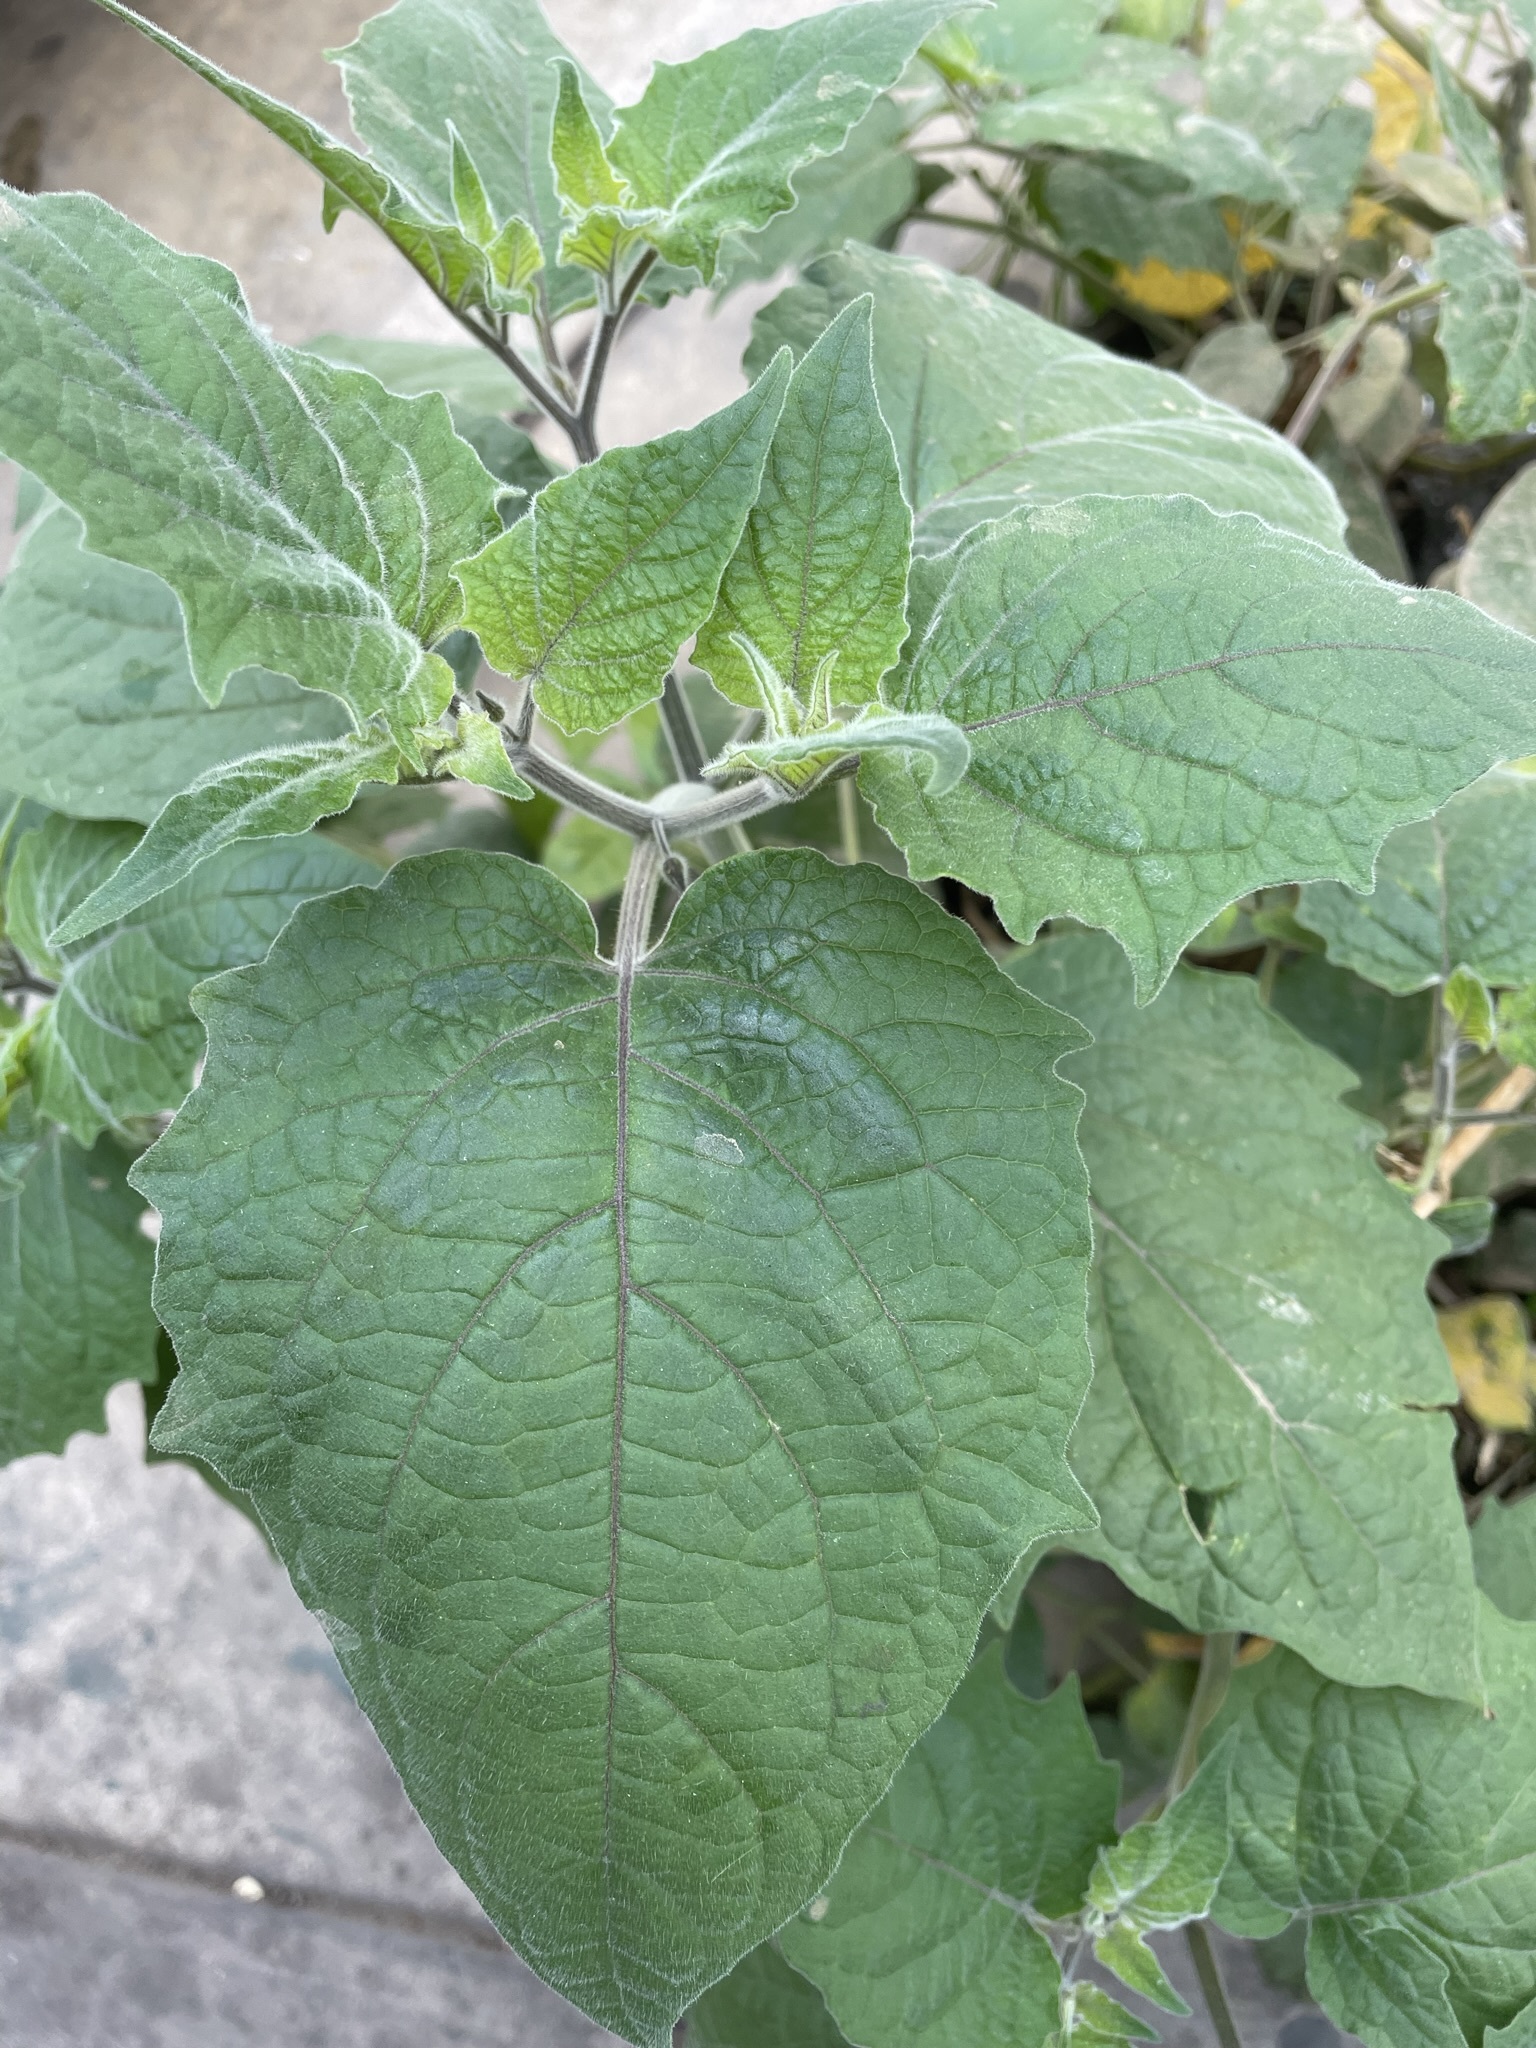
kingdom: Plantae
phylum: Tracheophyta
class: Magnoliopsida
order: Solanales
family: Solanaceae
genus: Physalis
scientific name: Physalis peruviana
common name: Cape-gooseberry
